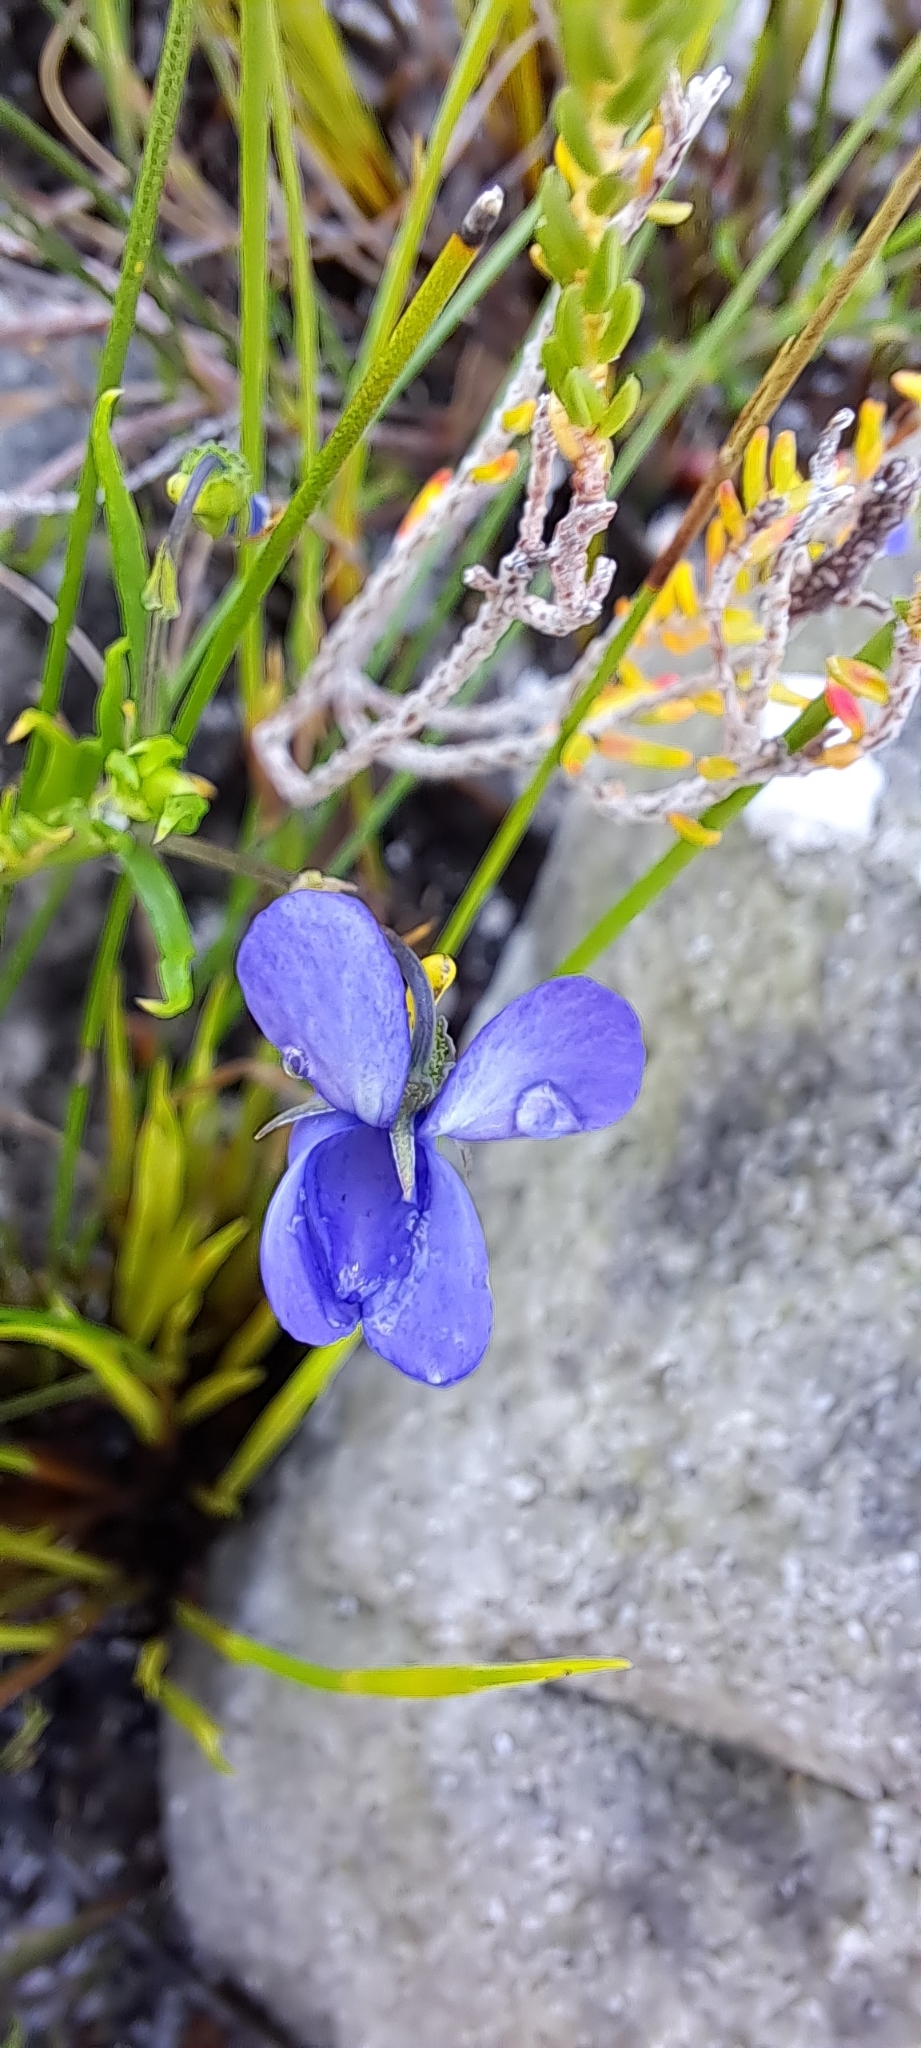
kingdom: Plantae
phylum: Tracheophyta
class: Magnoliopsida
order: Malpighiales
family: Violaceae
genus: Viola
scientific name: Viola decumbens
